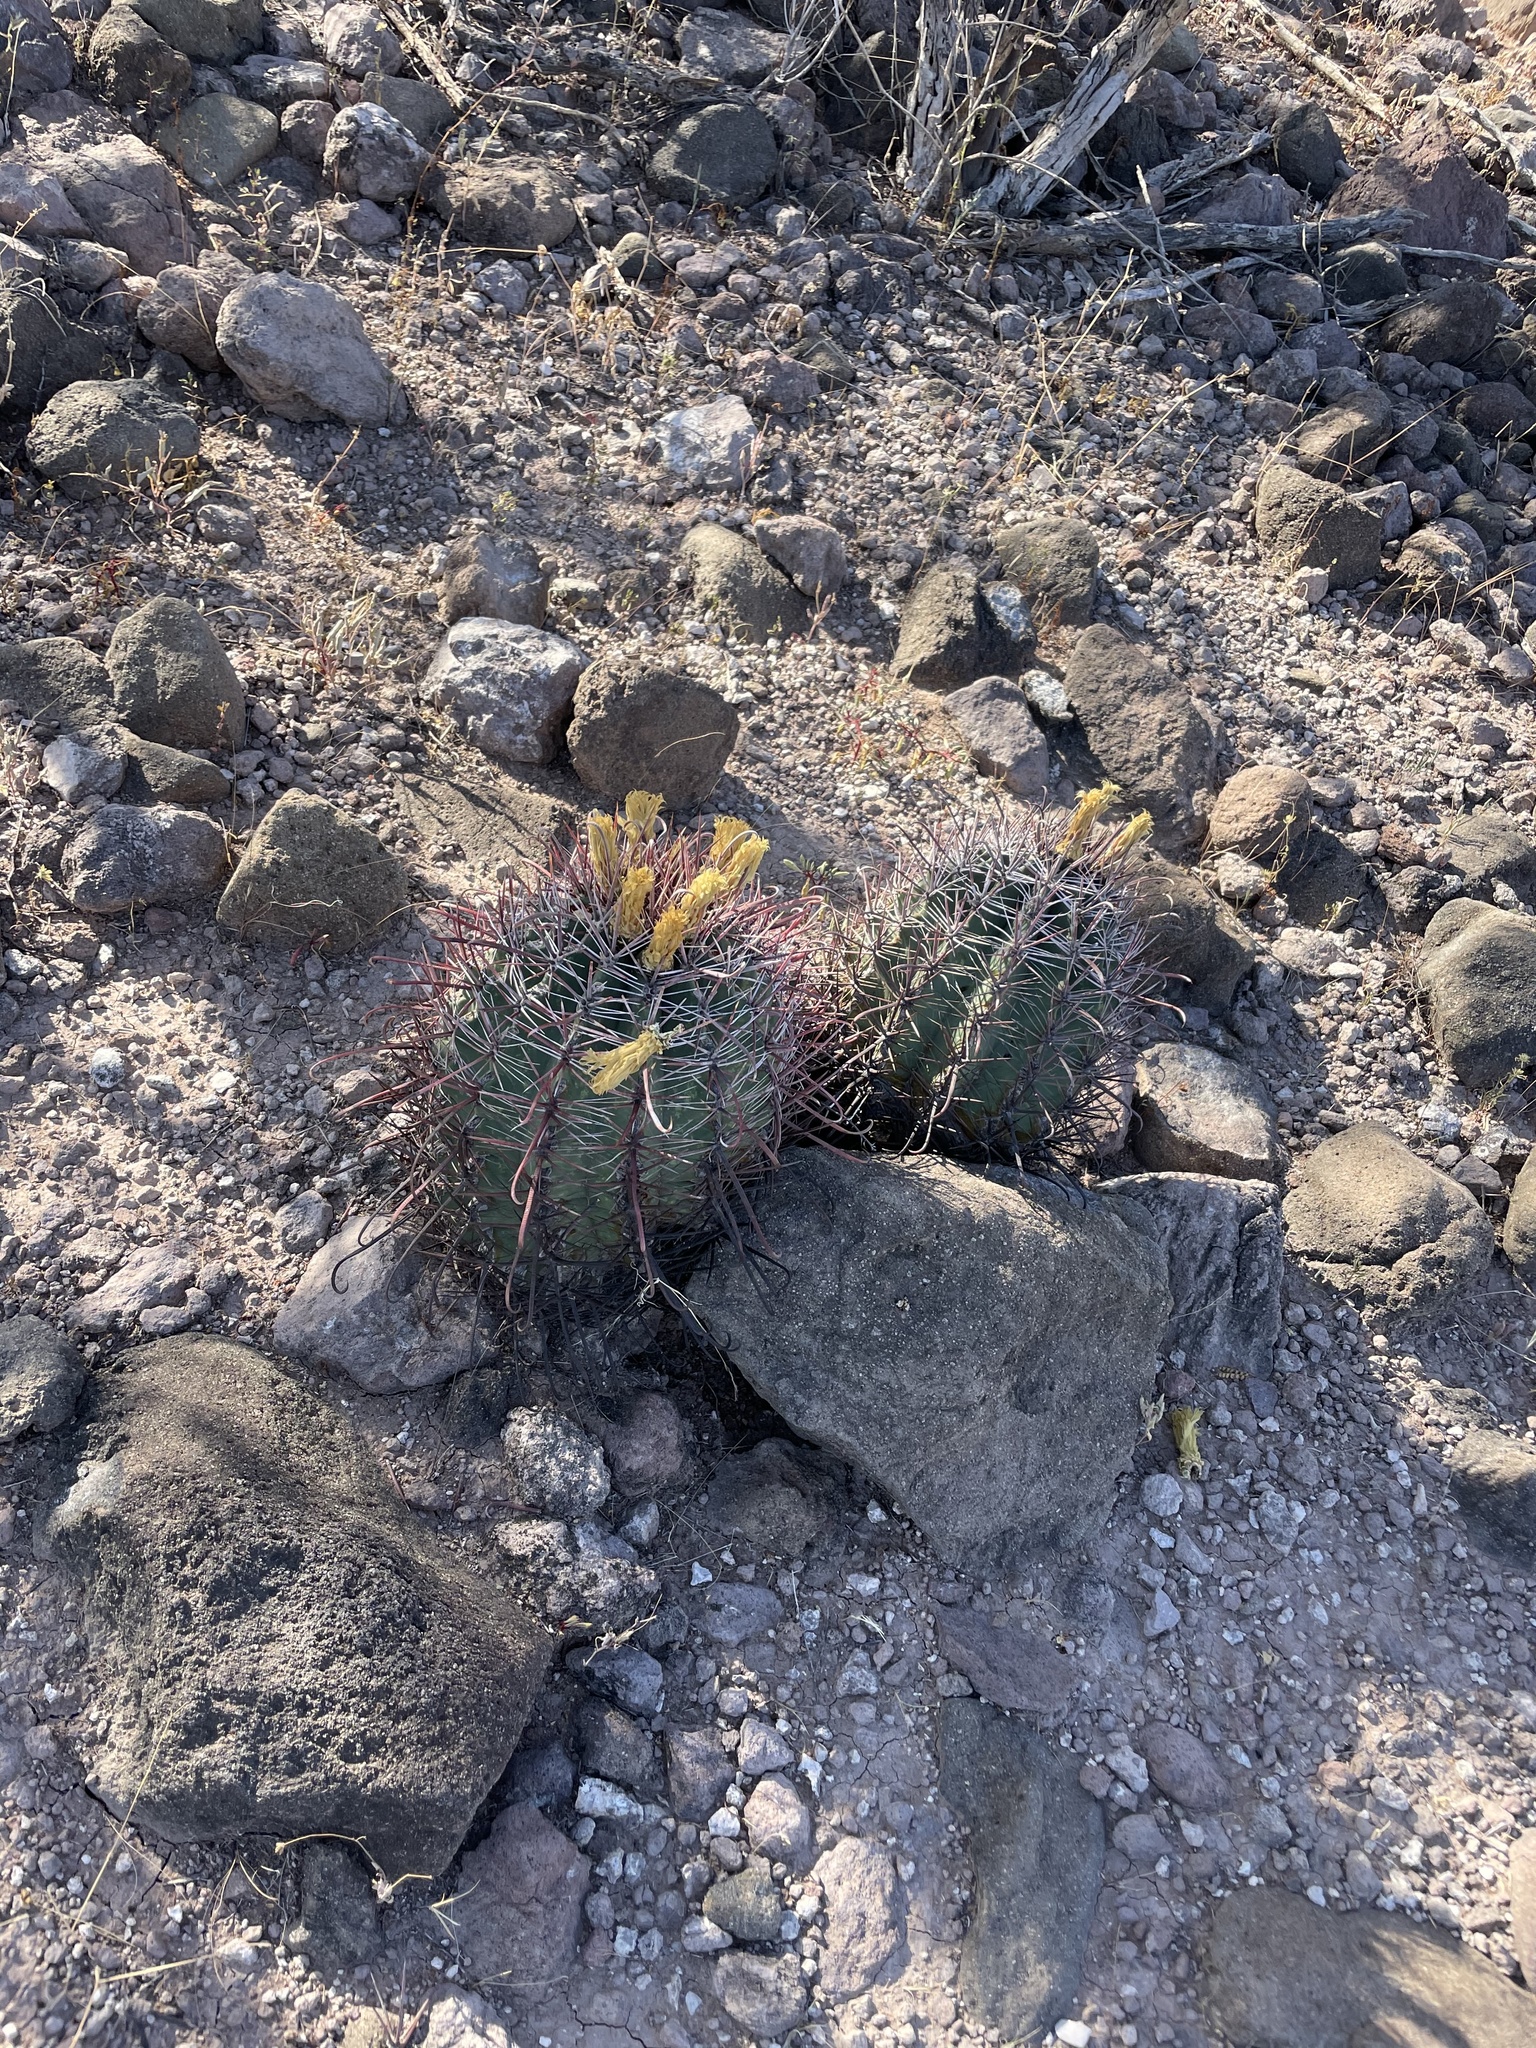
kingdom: Plantae
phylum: Tracheophyta
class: Magnoliopsida
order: Caryophyllales
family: Cactaceae
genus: Ferocactus
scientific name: Ferocactus peninsulae
